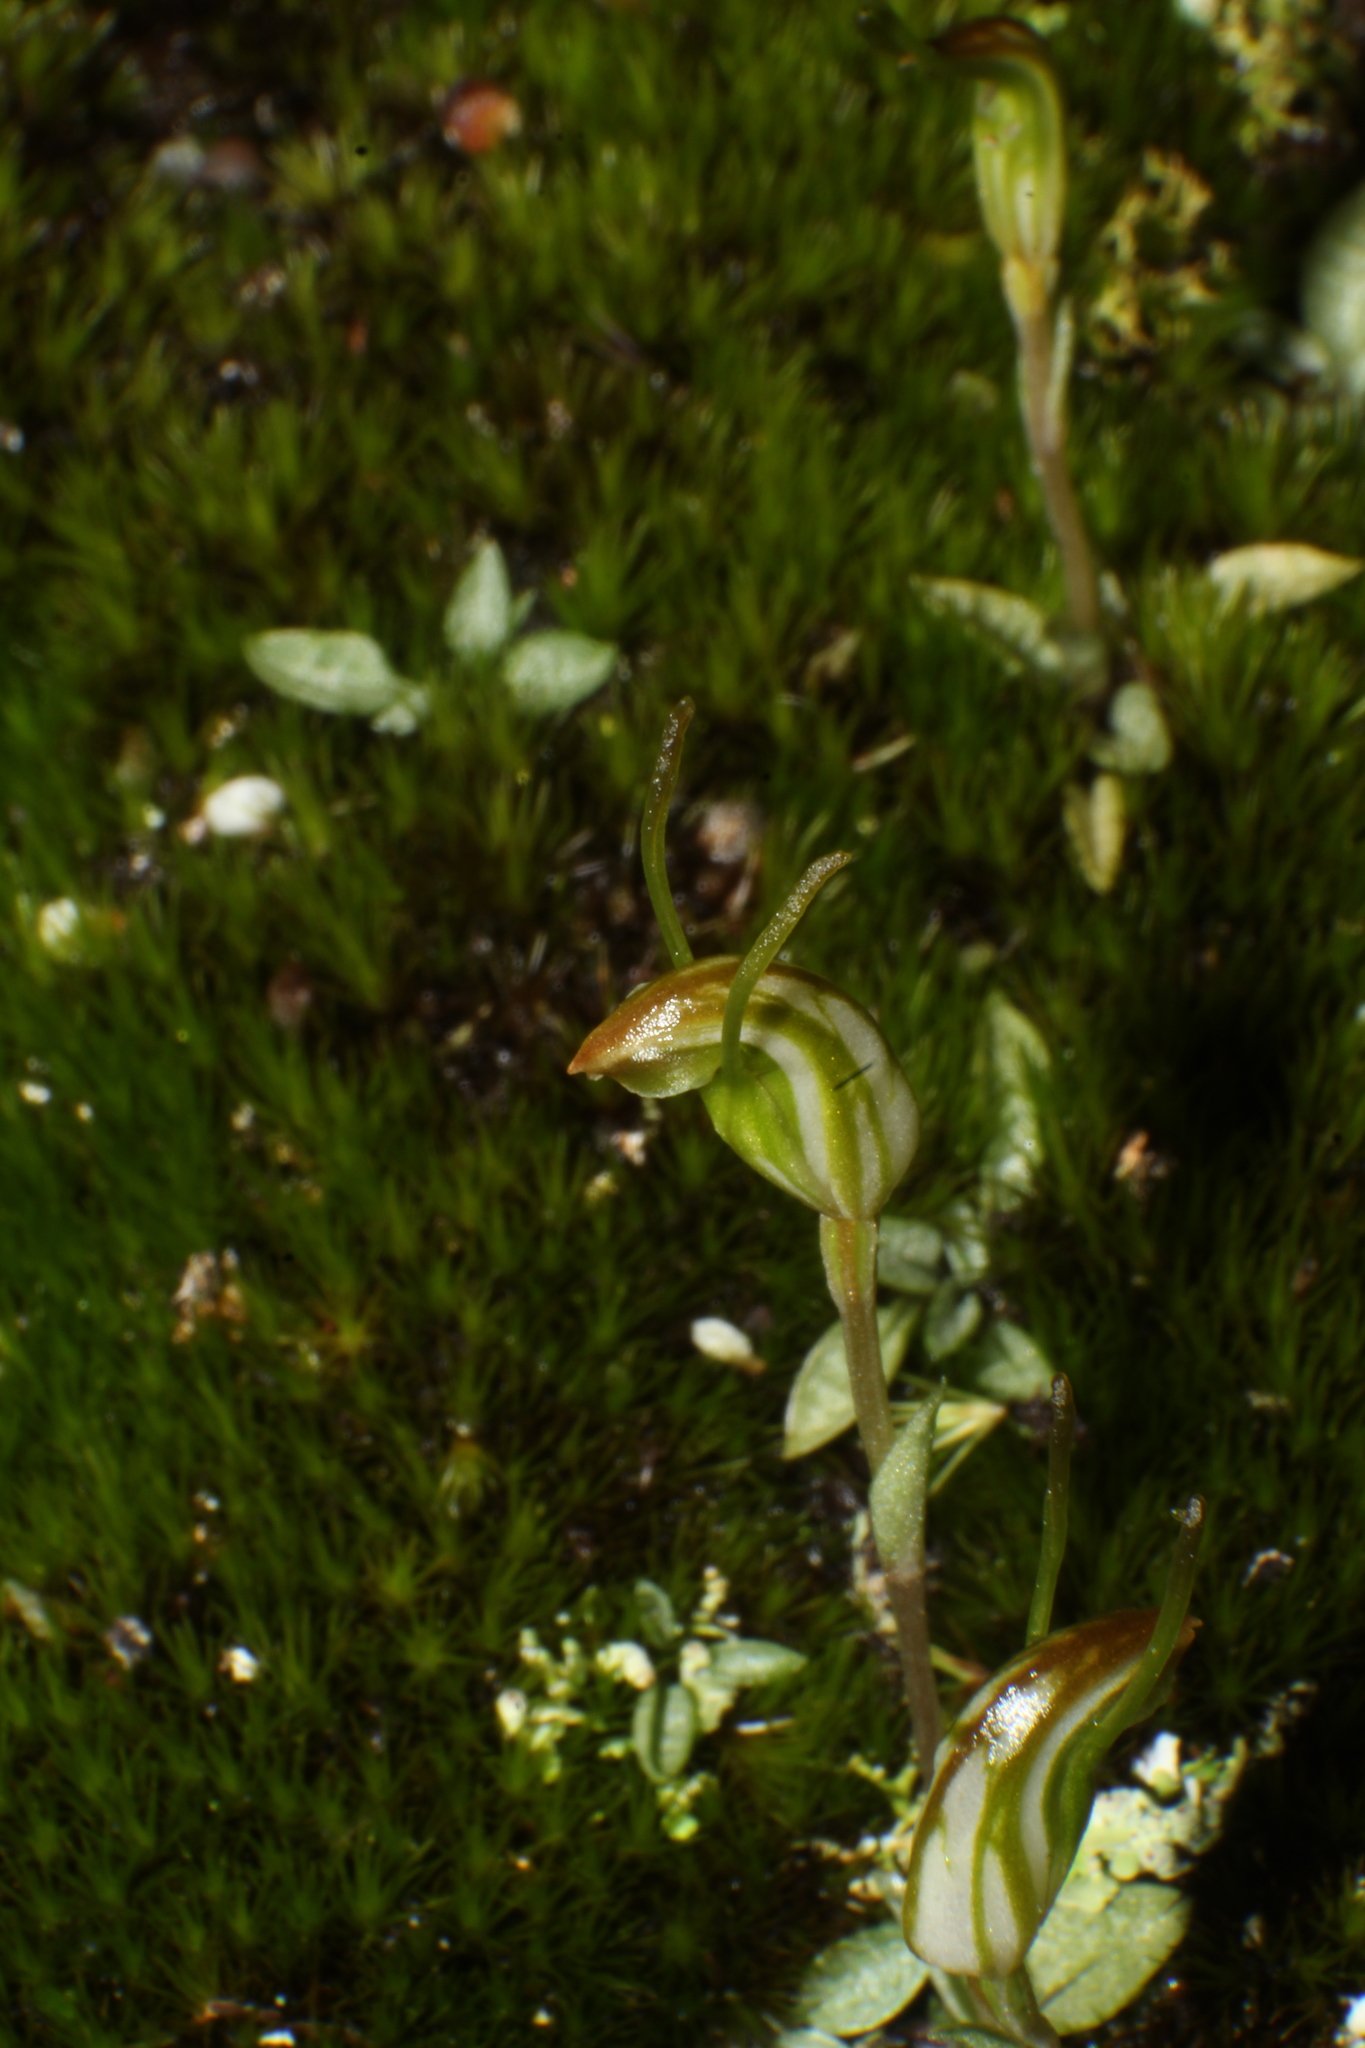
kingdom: Plantae
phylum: Tracheophyta
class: Liliopsida
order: Asparagales
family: Orchidaceae
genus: Pterostylis
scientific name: Pterostylis parva
